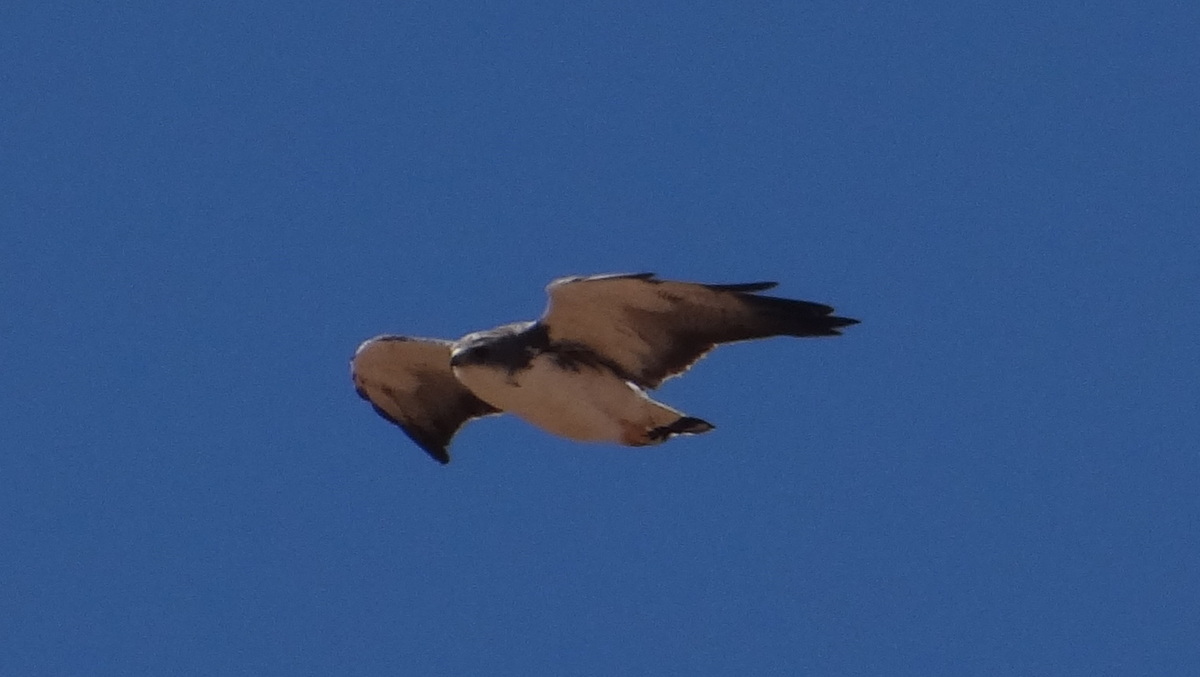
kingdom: Animalia
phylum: Chordata
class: Aves
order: Accipitriformes
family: Accipitridae
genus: Buteo
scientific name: Buteo polyosoma
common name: Variable hawk
